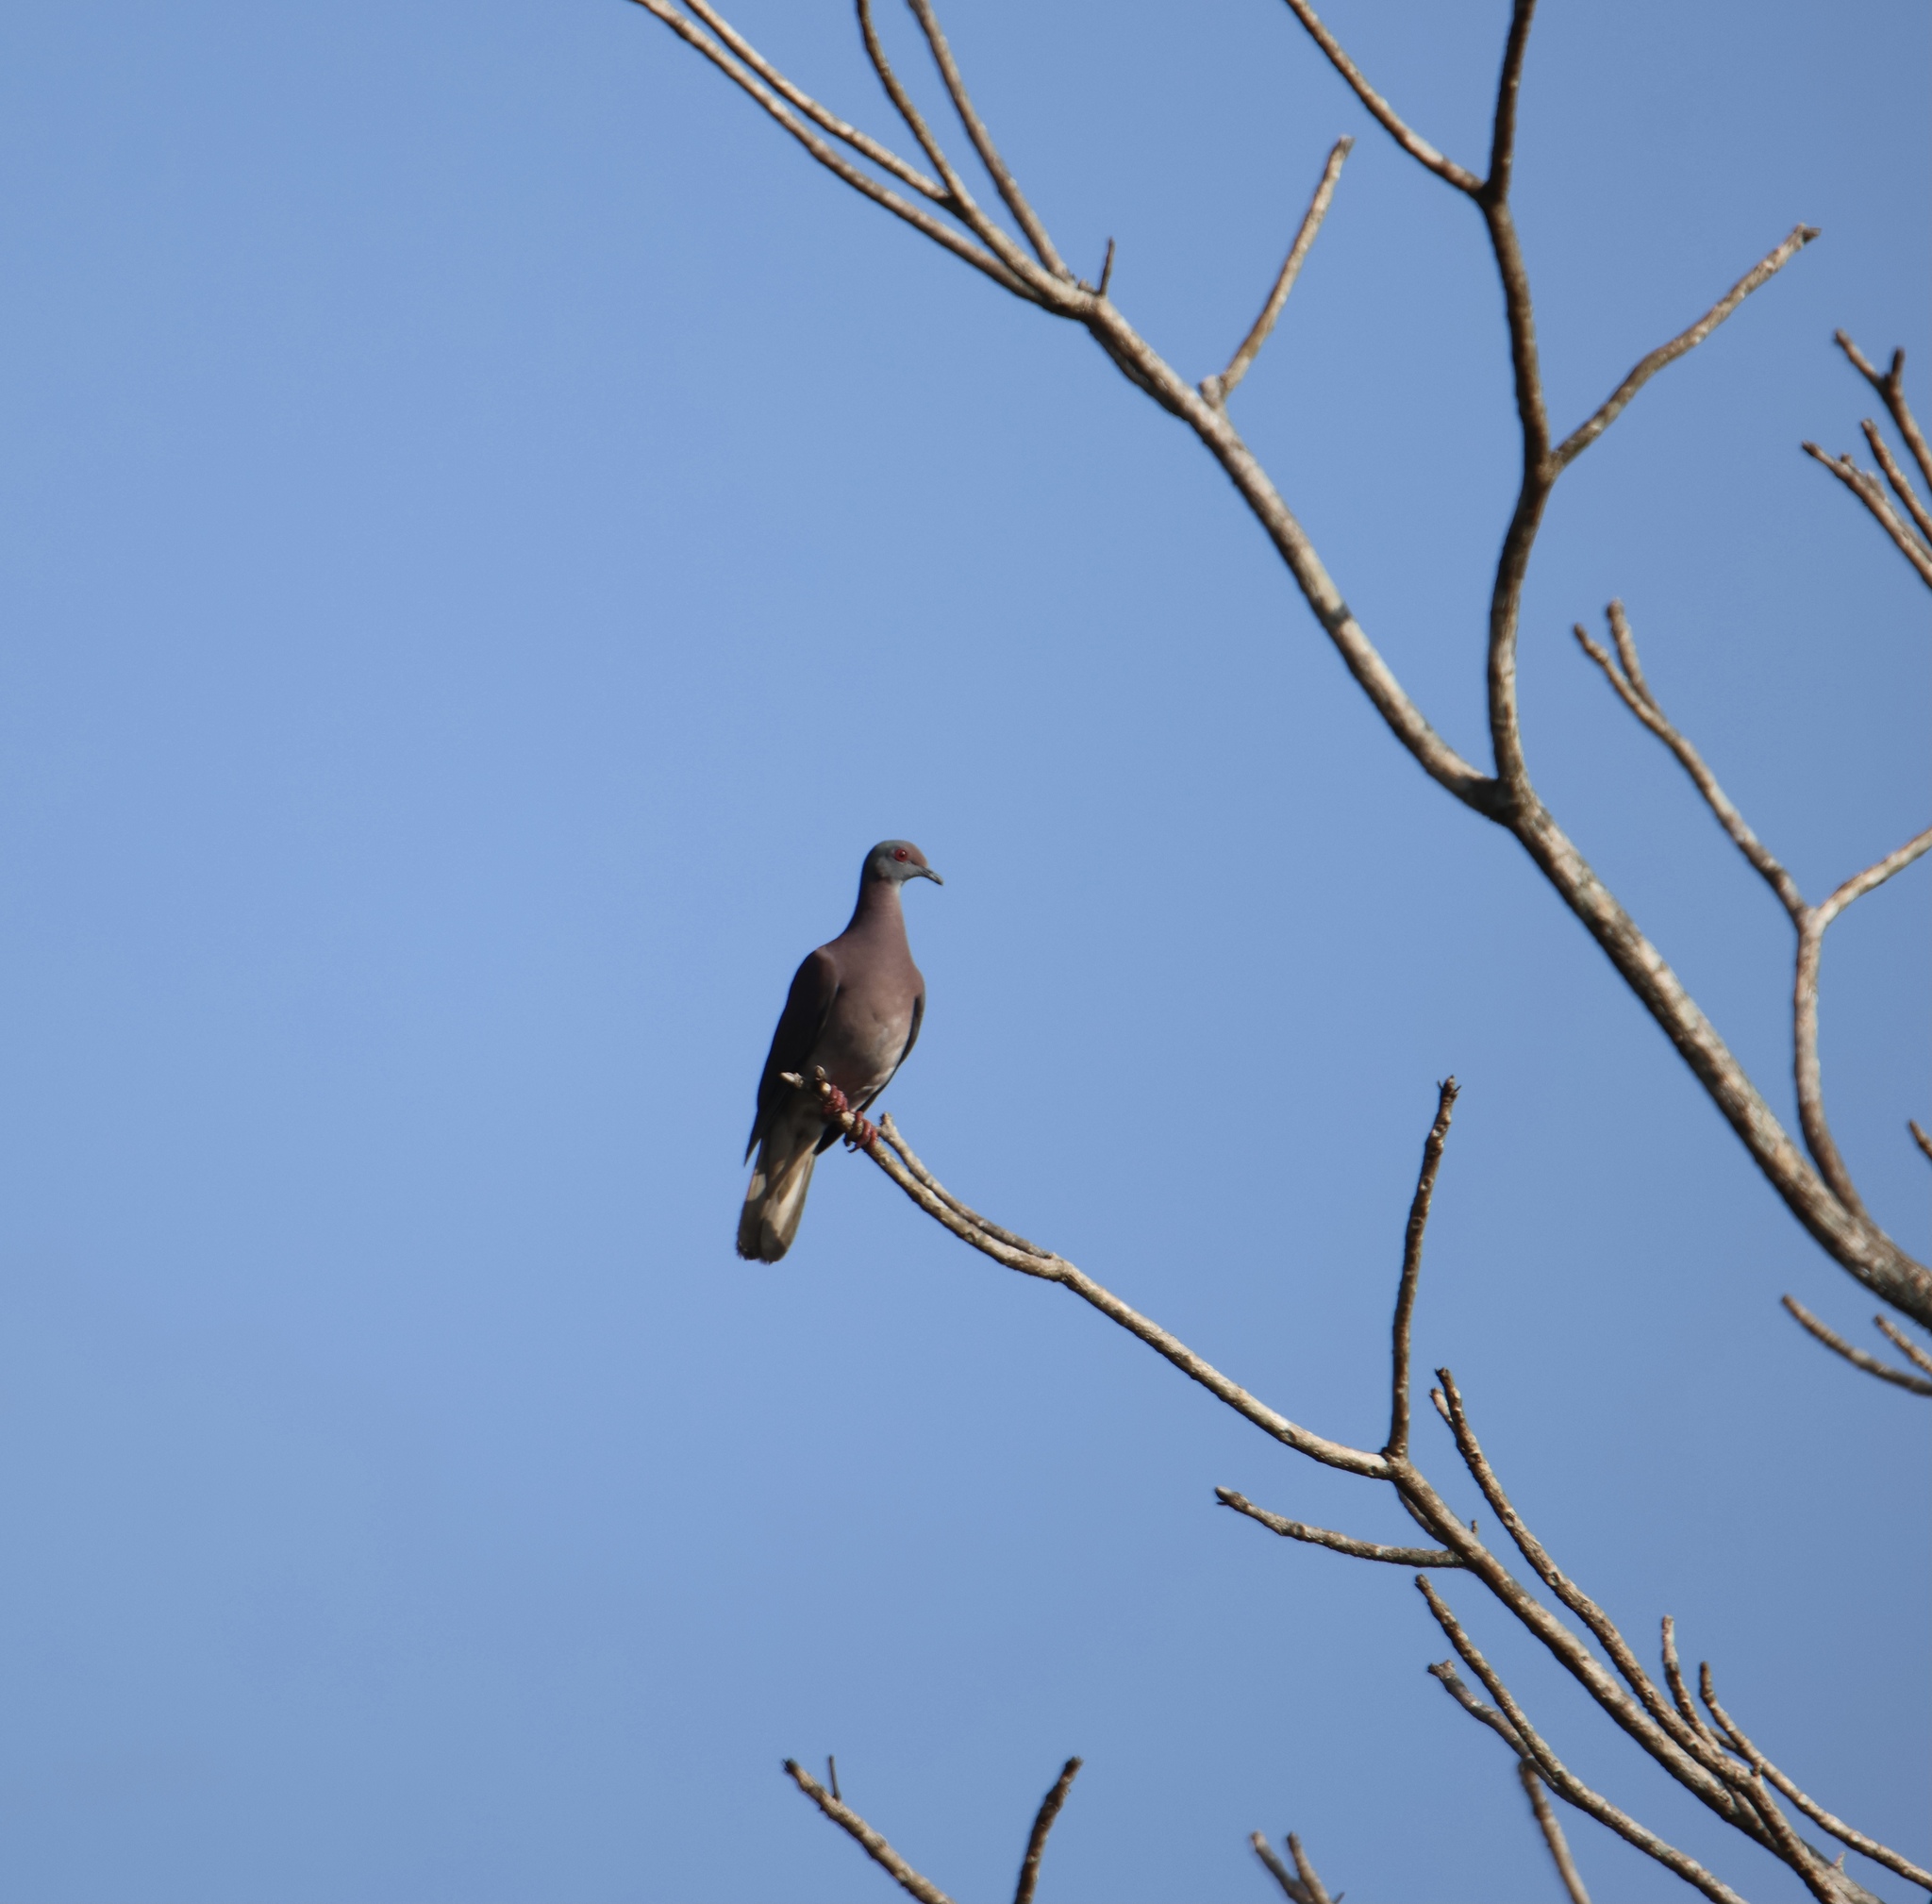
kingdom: Animalia
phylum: Chordata
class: Aves
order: Columbiformes
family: Columbidae
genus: Patagioenas
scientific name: Patagioenas cayennensis
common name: Pale-vented pigeon
